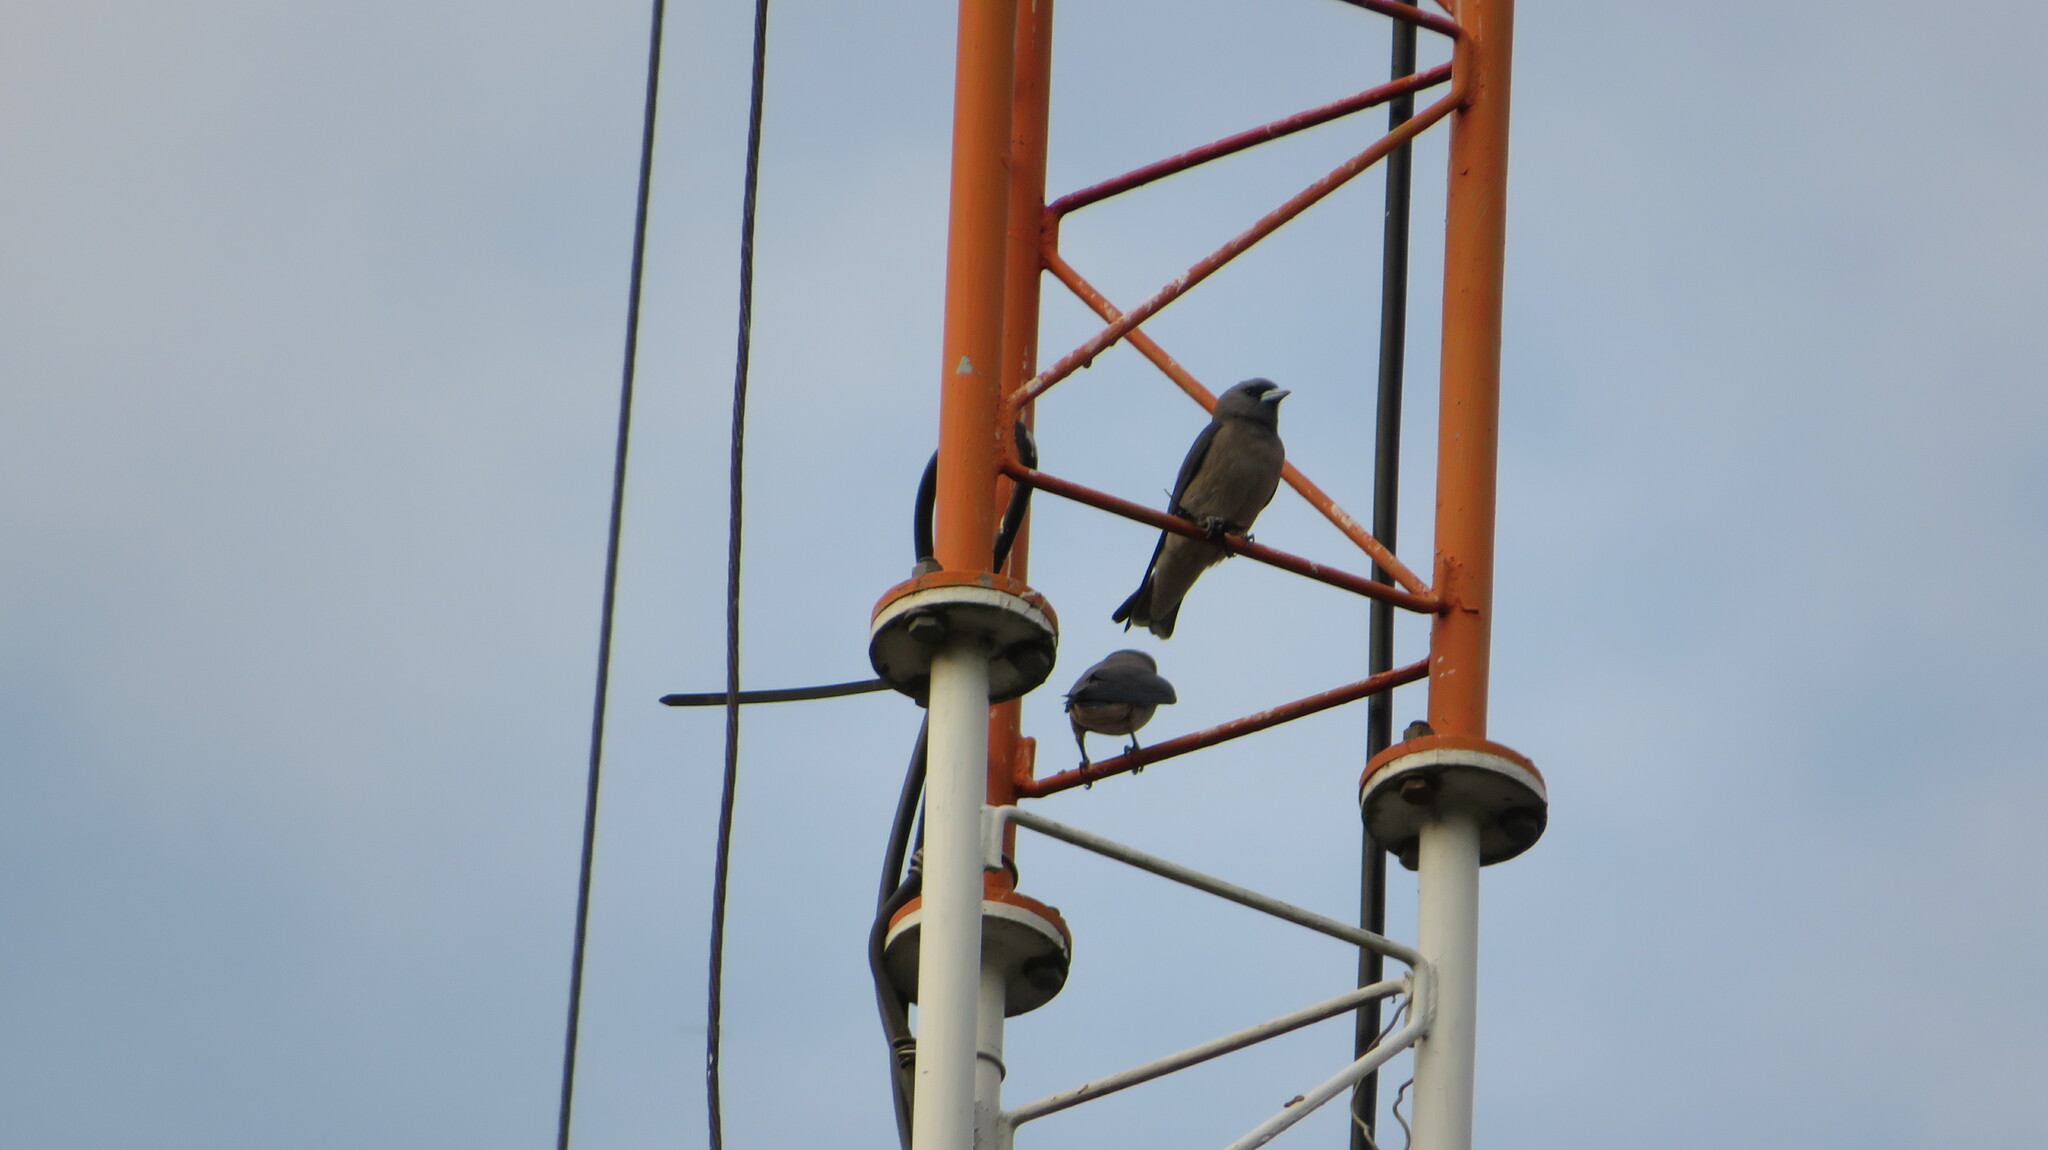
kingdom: Animalia
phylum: Chordata
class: Aves
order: Passeriformes
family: Artamidae
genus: Artamus
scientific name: Artamus fuscus
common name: Ashy woodswallow
